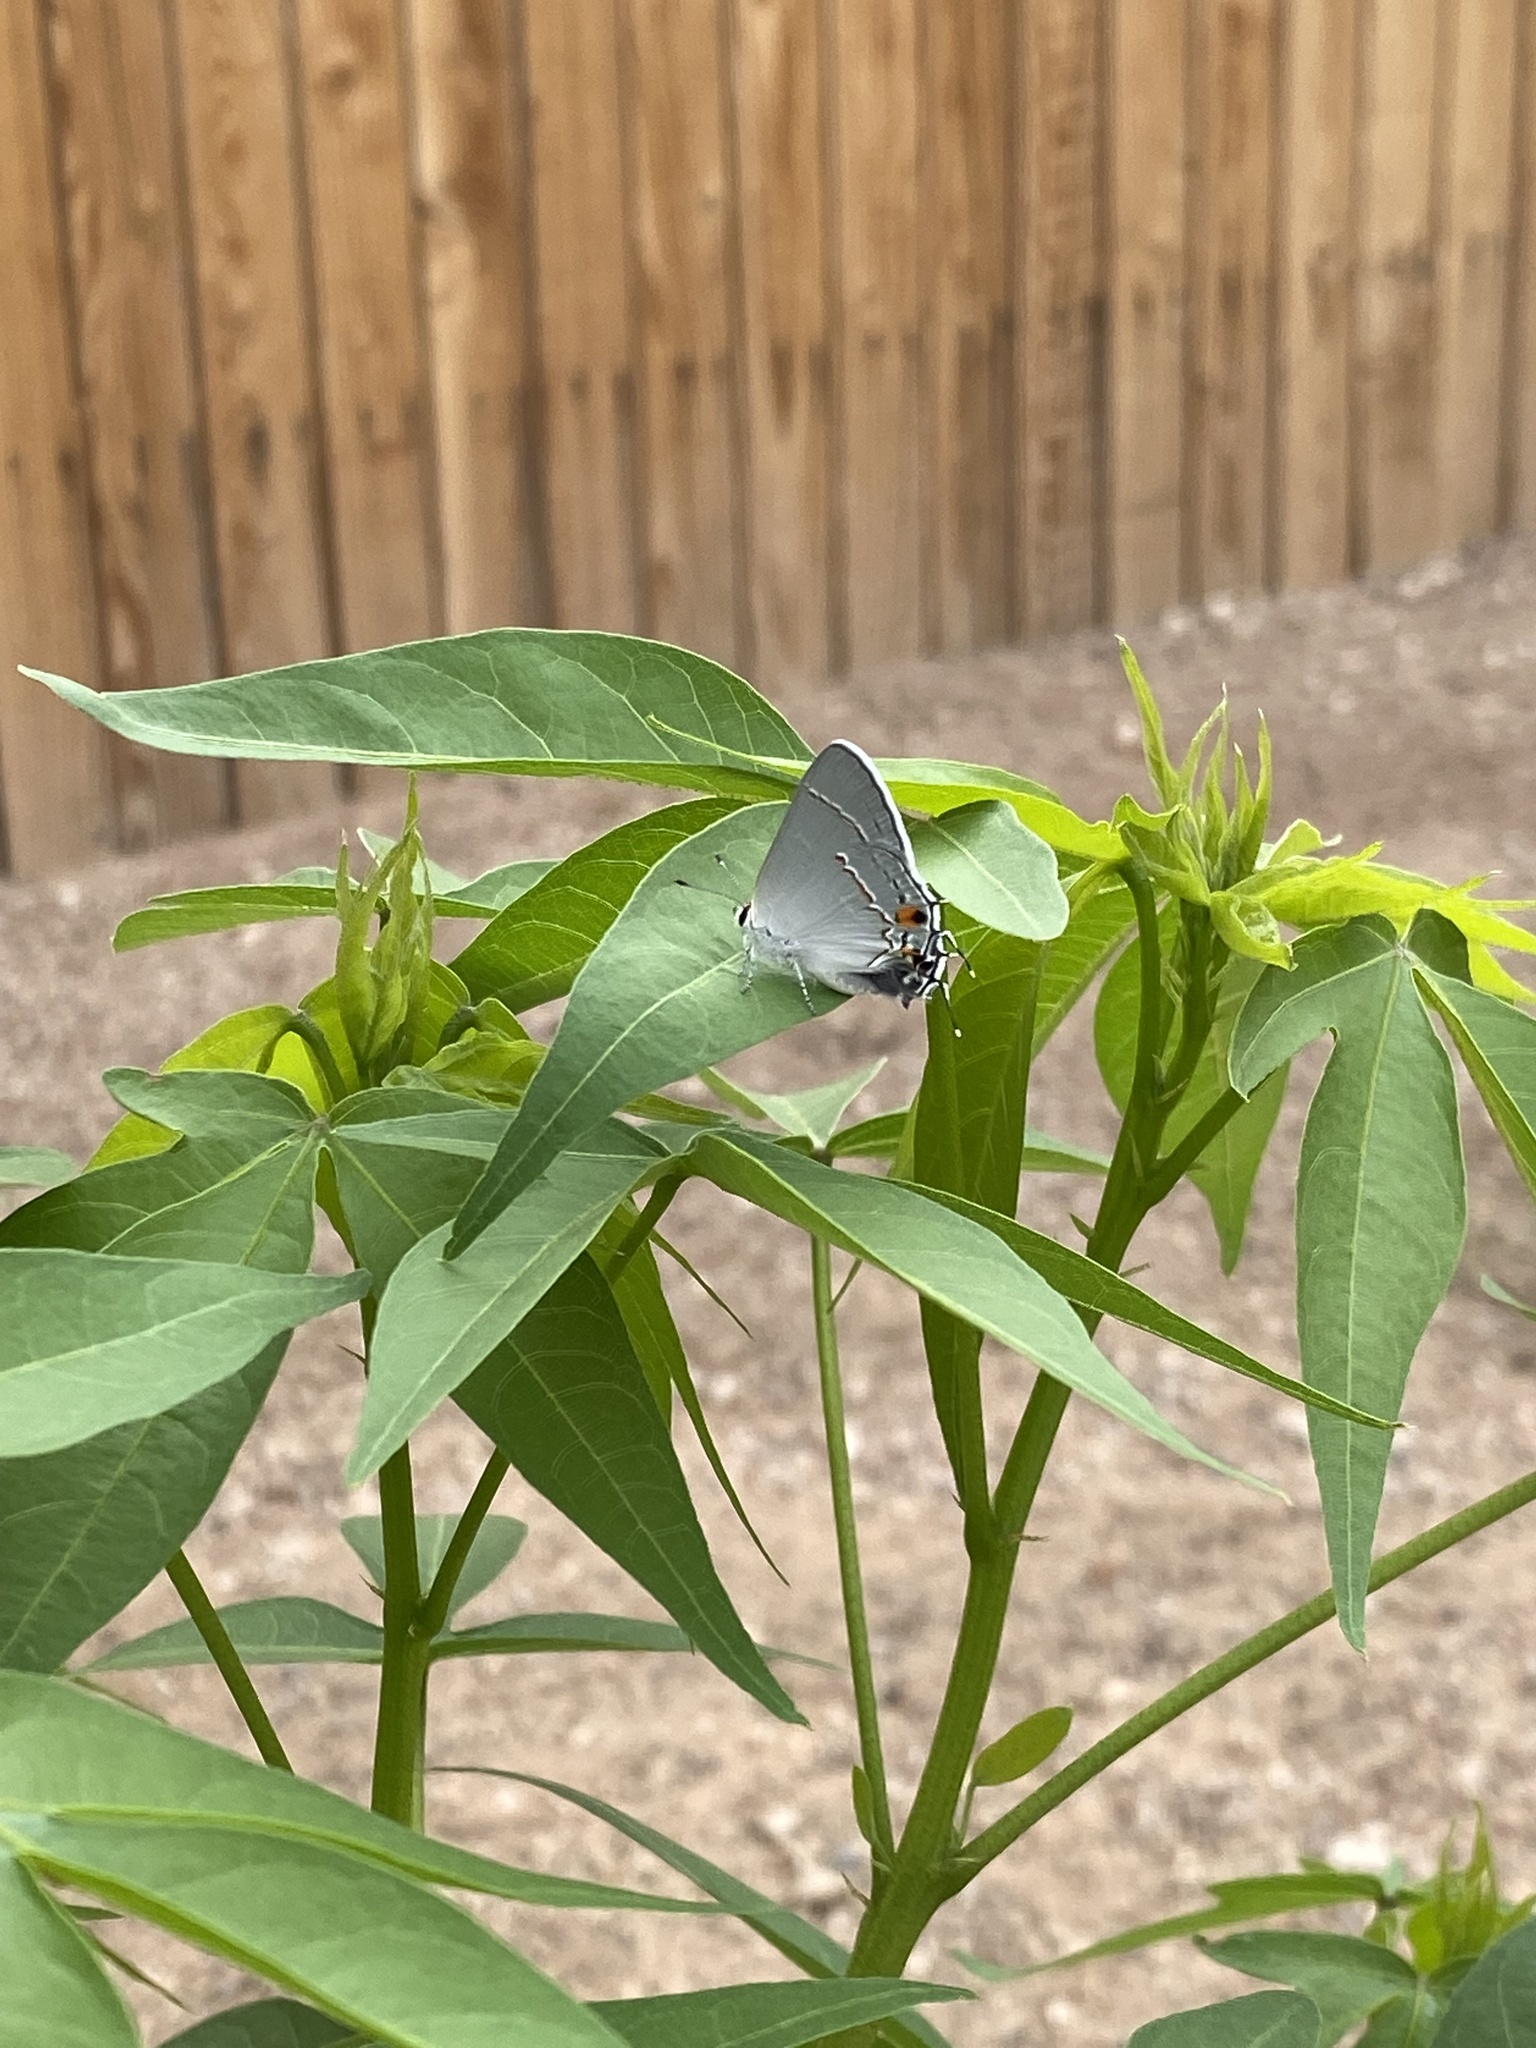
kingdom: Animalia
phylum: Arthropoda
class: Insecta
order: Lepidoptera
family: Lycaenidae
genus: Strymon
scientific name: Strymon melinus
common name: Gray hairstreak
